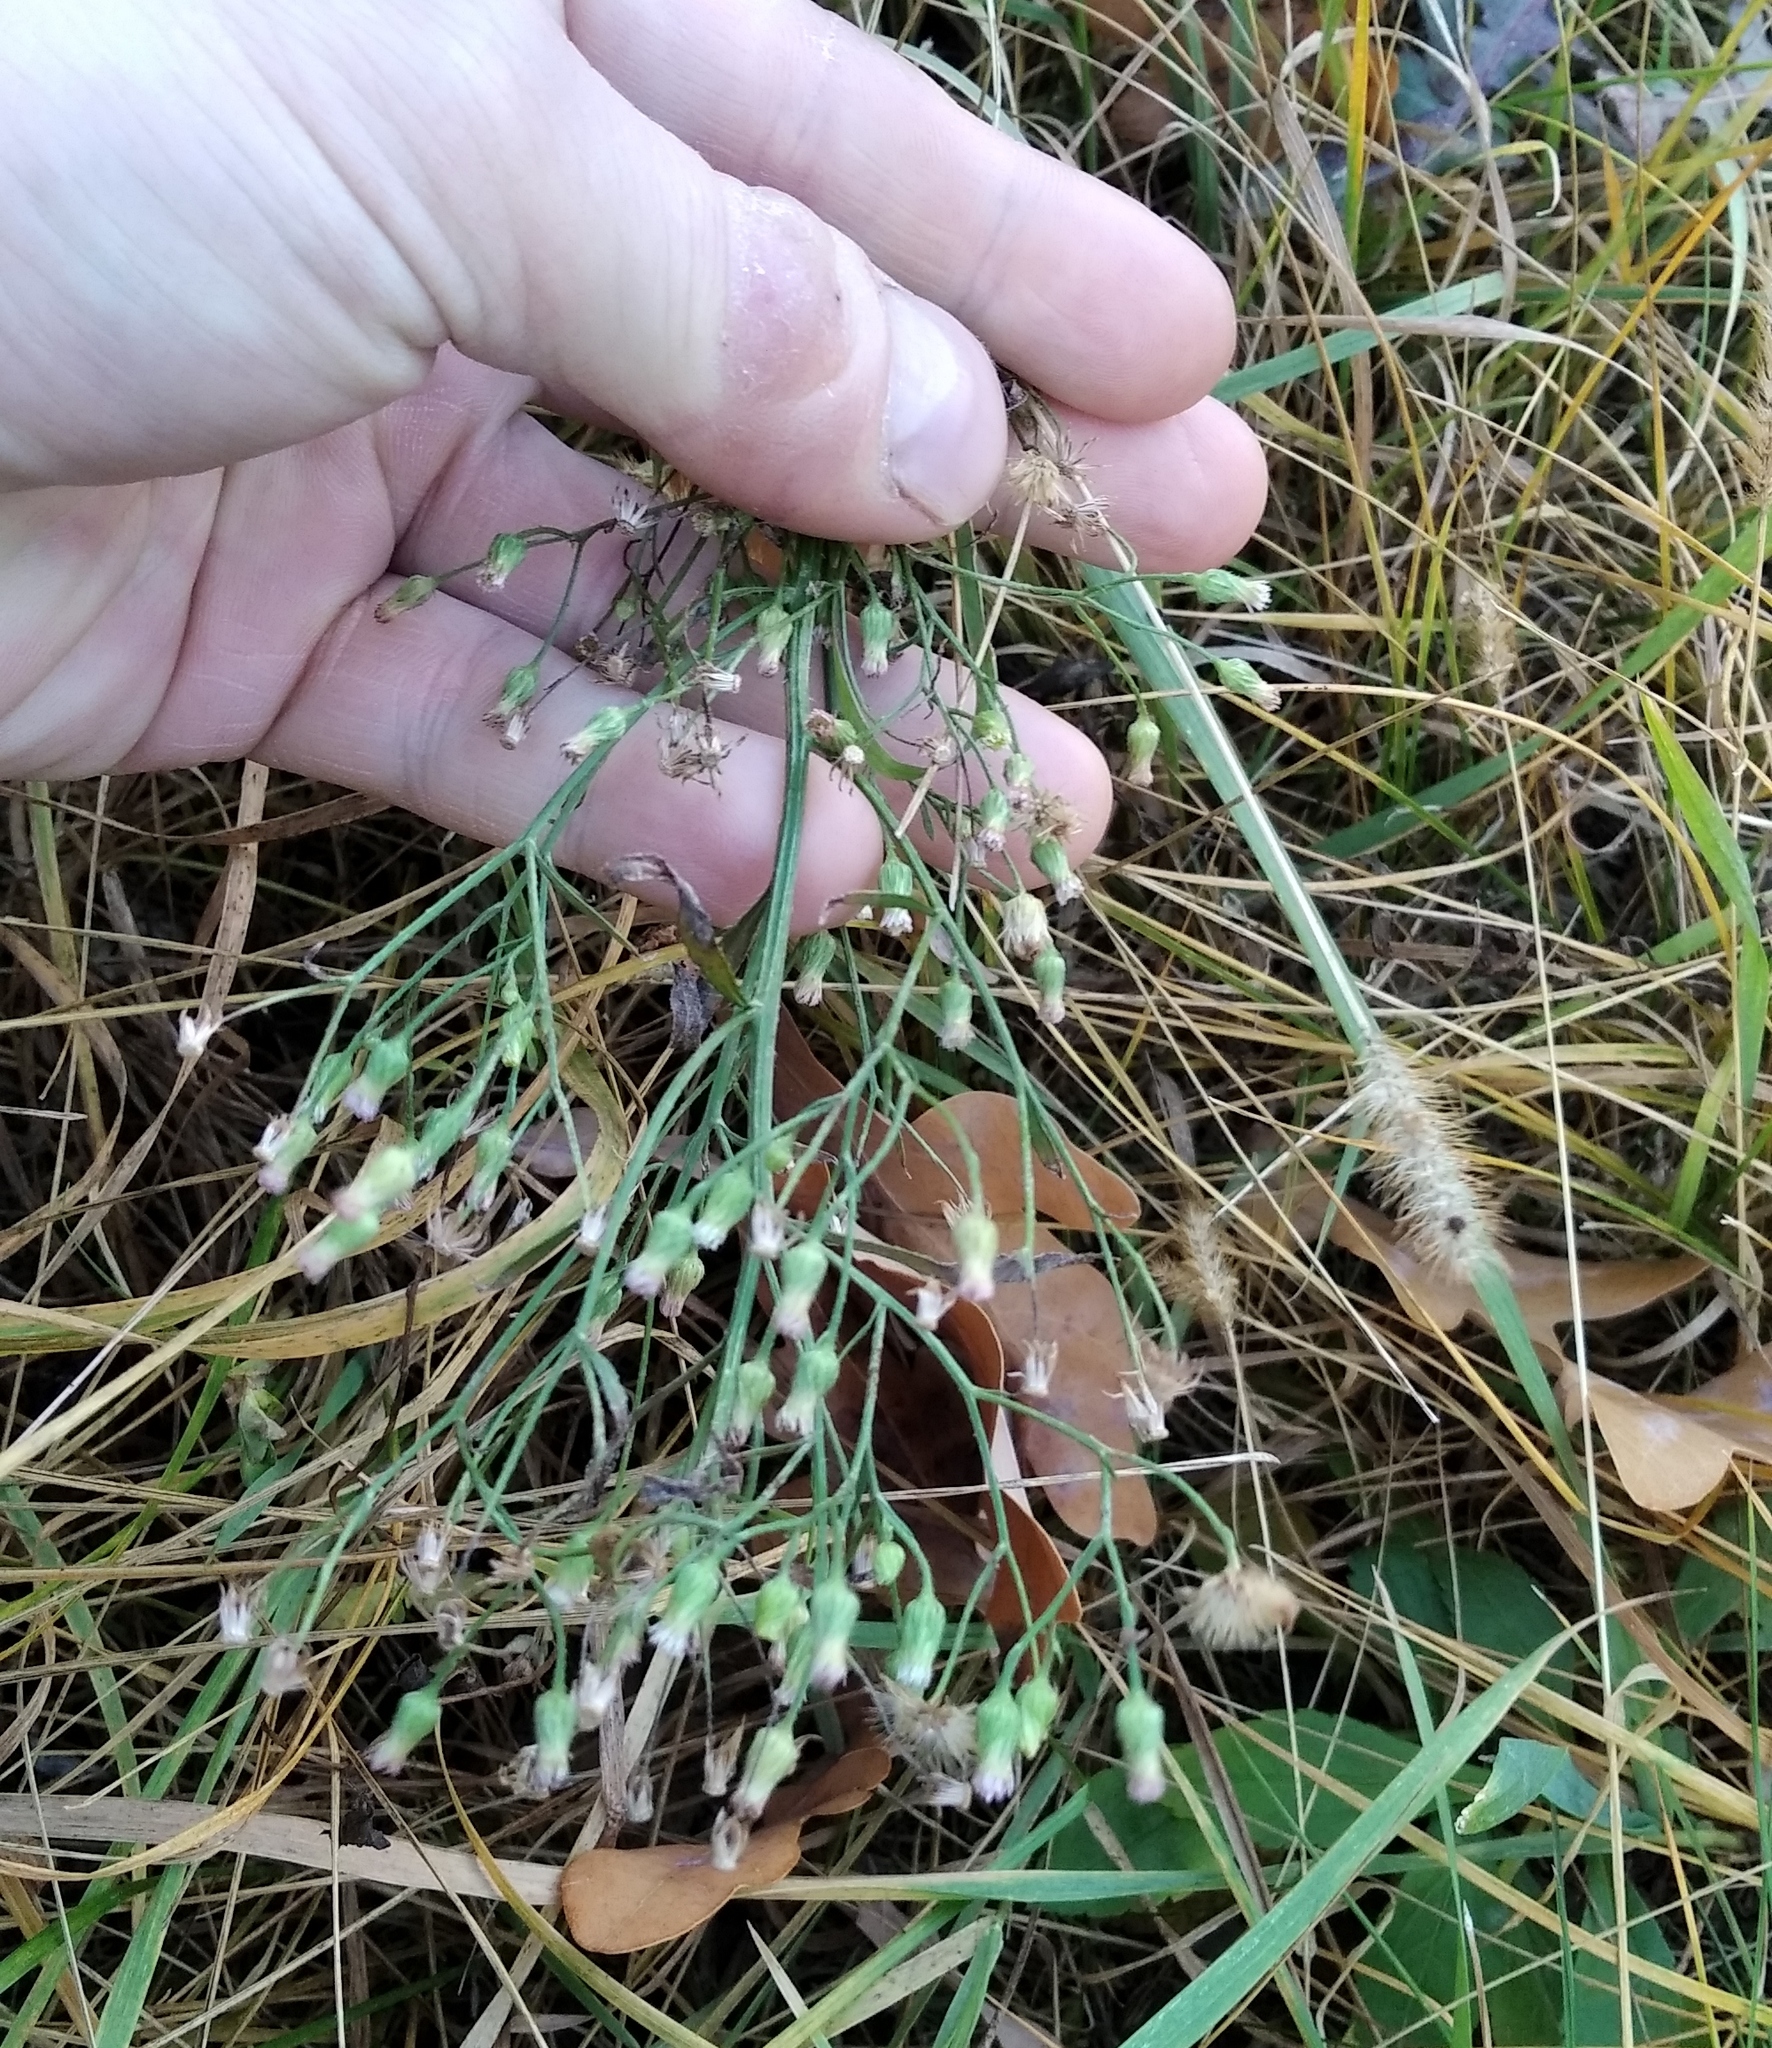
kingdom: Plantae
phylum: Tracheophyta
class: Magnoliopsida
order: Asterales
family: Asteraceae
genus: Erigeron
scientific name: Erigeron canadensis
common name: Canadian fleabane
